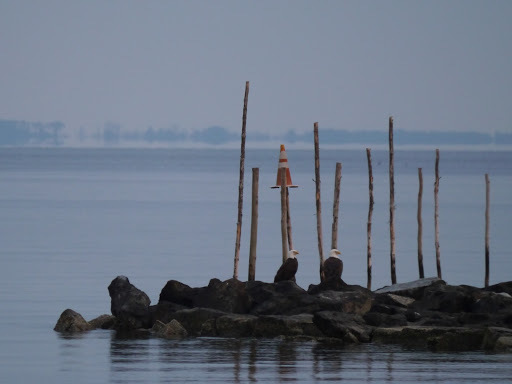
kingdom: Animalia
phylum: Chordata
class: Aves
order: Accipitriformes
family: Accipitridae
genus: Haliaeetus
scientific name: Haliaeetus leucocephalus
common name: Bald eagle
